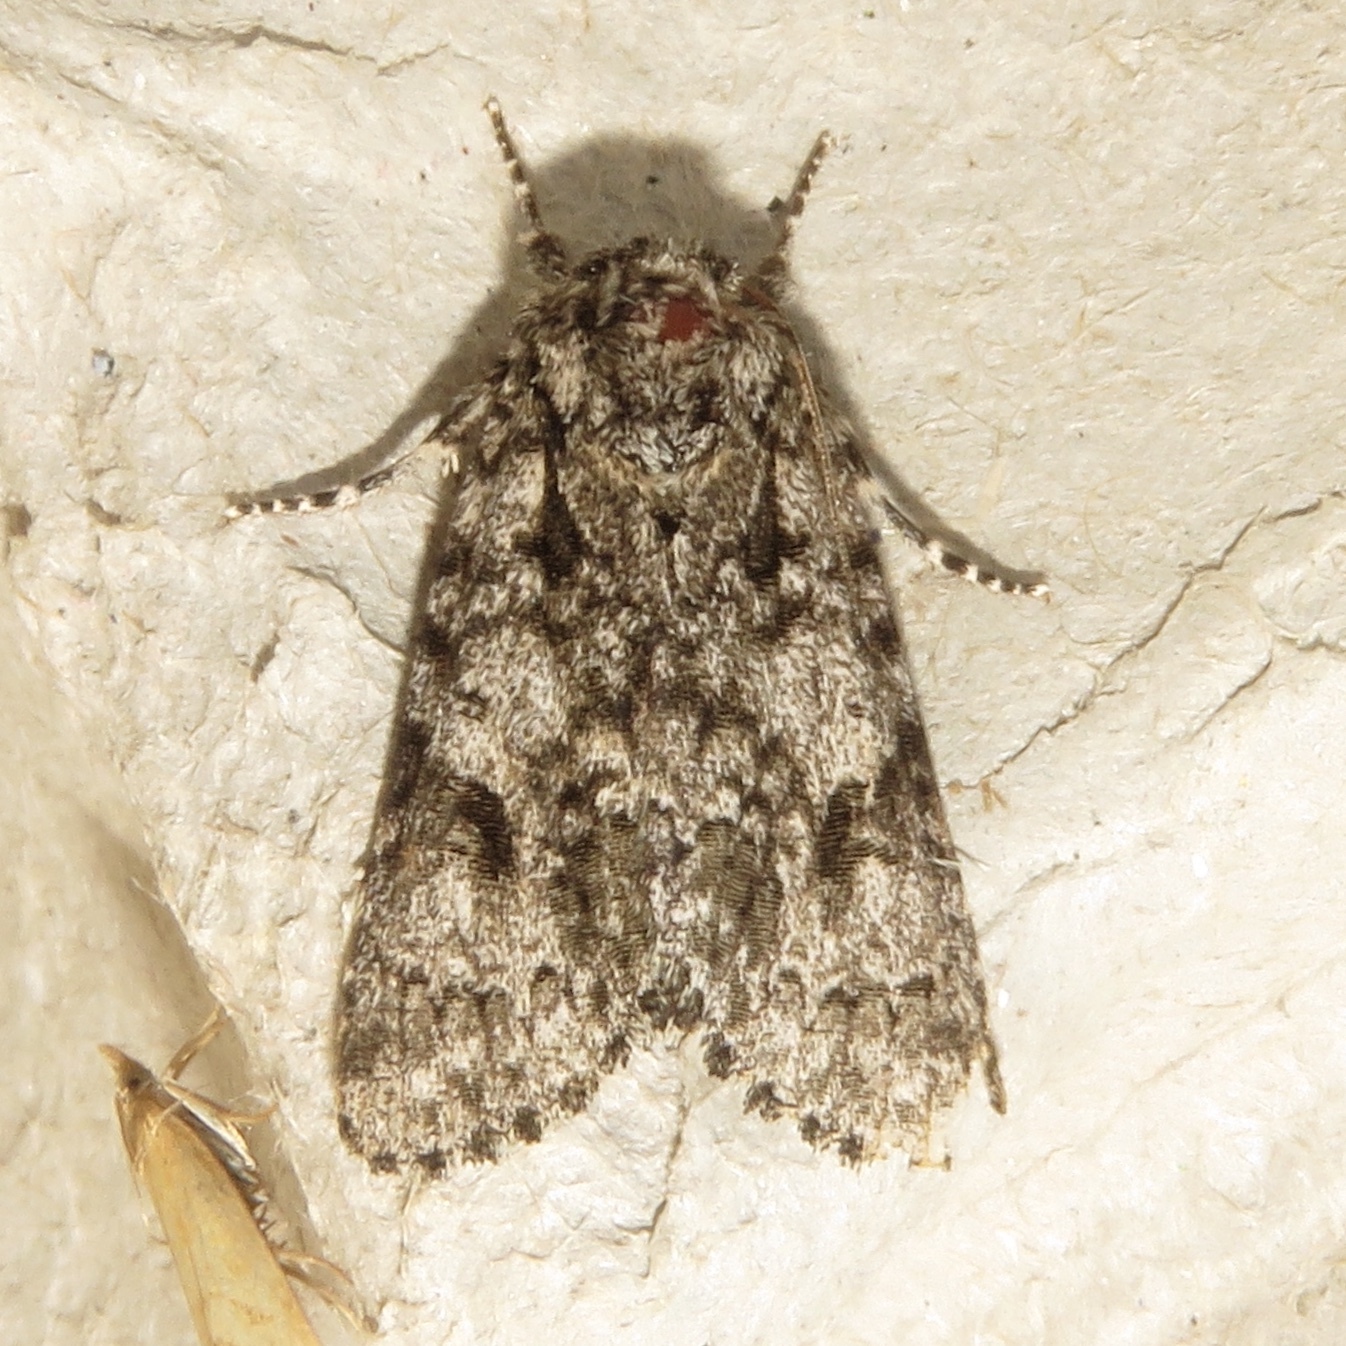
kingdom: Animalia
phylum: Arthropoda
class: Insecta
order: Lepidoptera
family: Noctuidae
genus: Acronicta
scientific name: Acronicta impressa
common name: Impressed dagger
